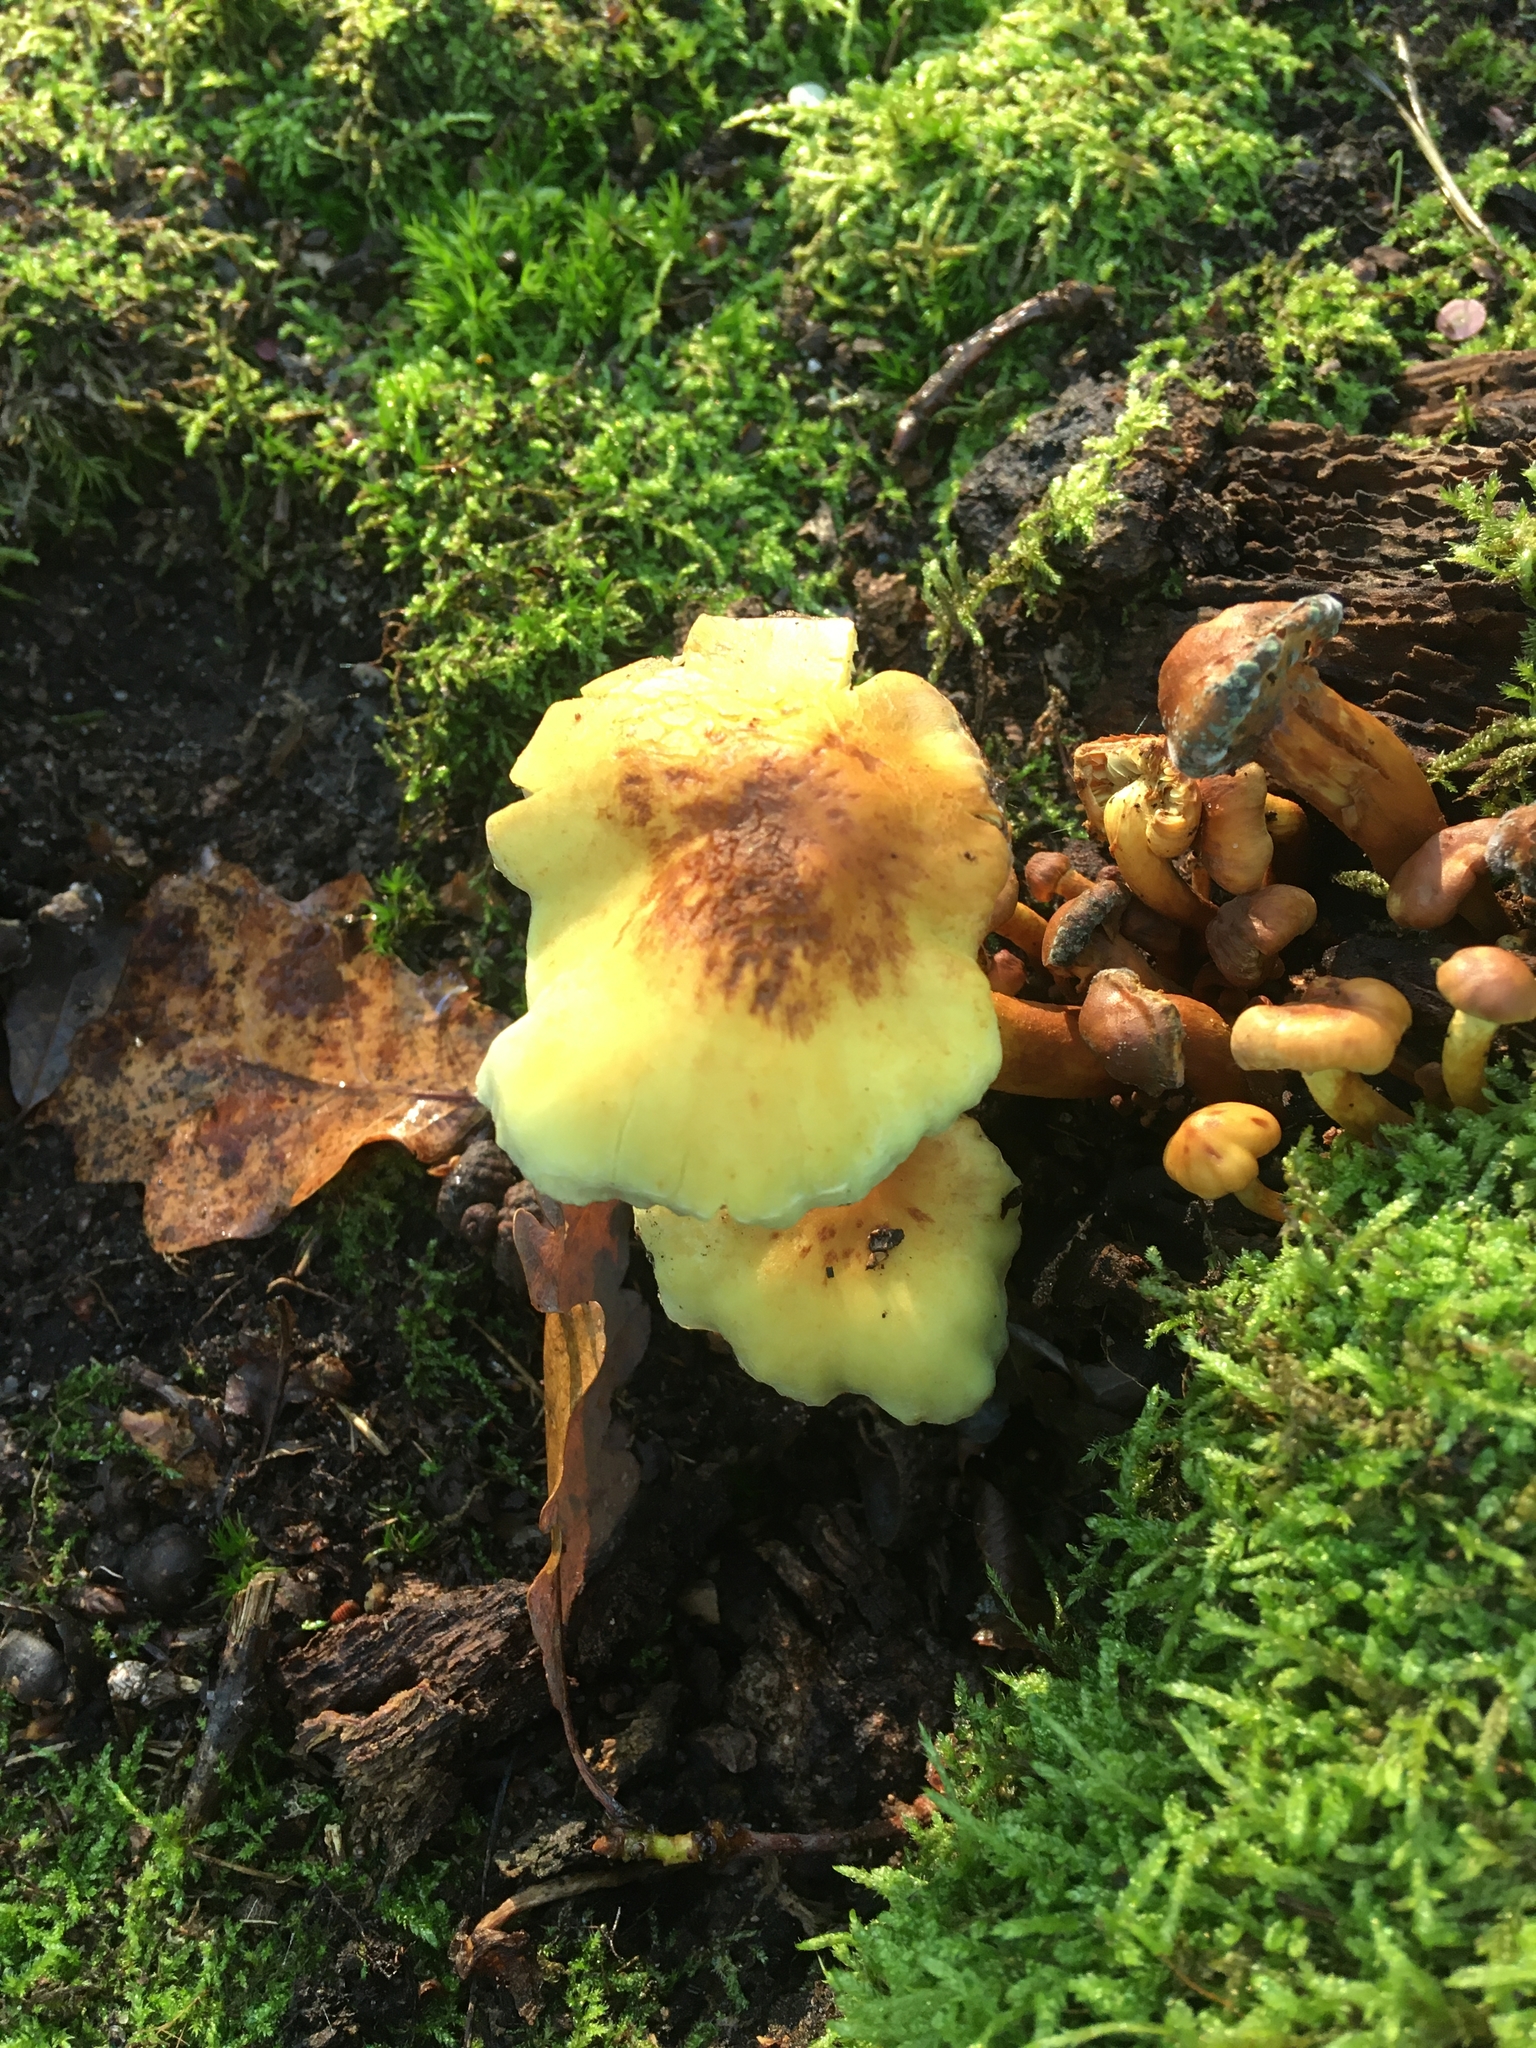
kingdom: Fungi
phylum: Basidiomycota
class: Agaricomycetes
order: Agaricales
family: Strophariaceae
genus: Hypholoma
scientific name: Hypholoma fasciculare
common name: Sulphur tuft
